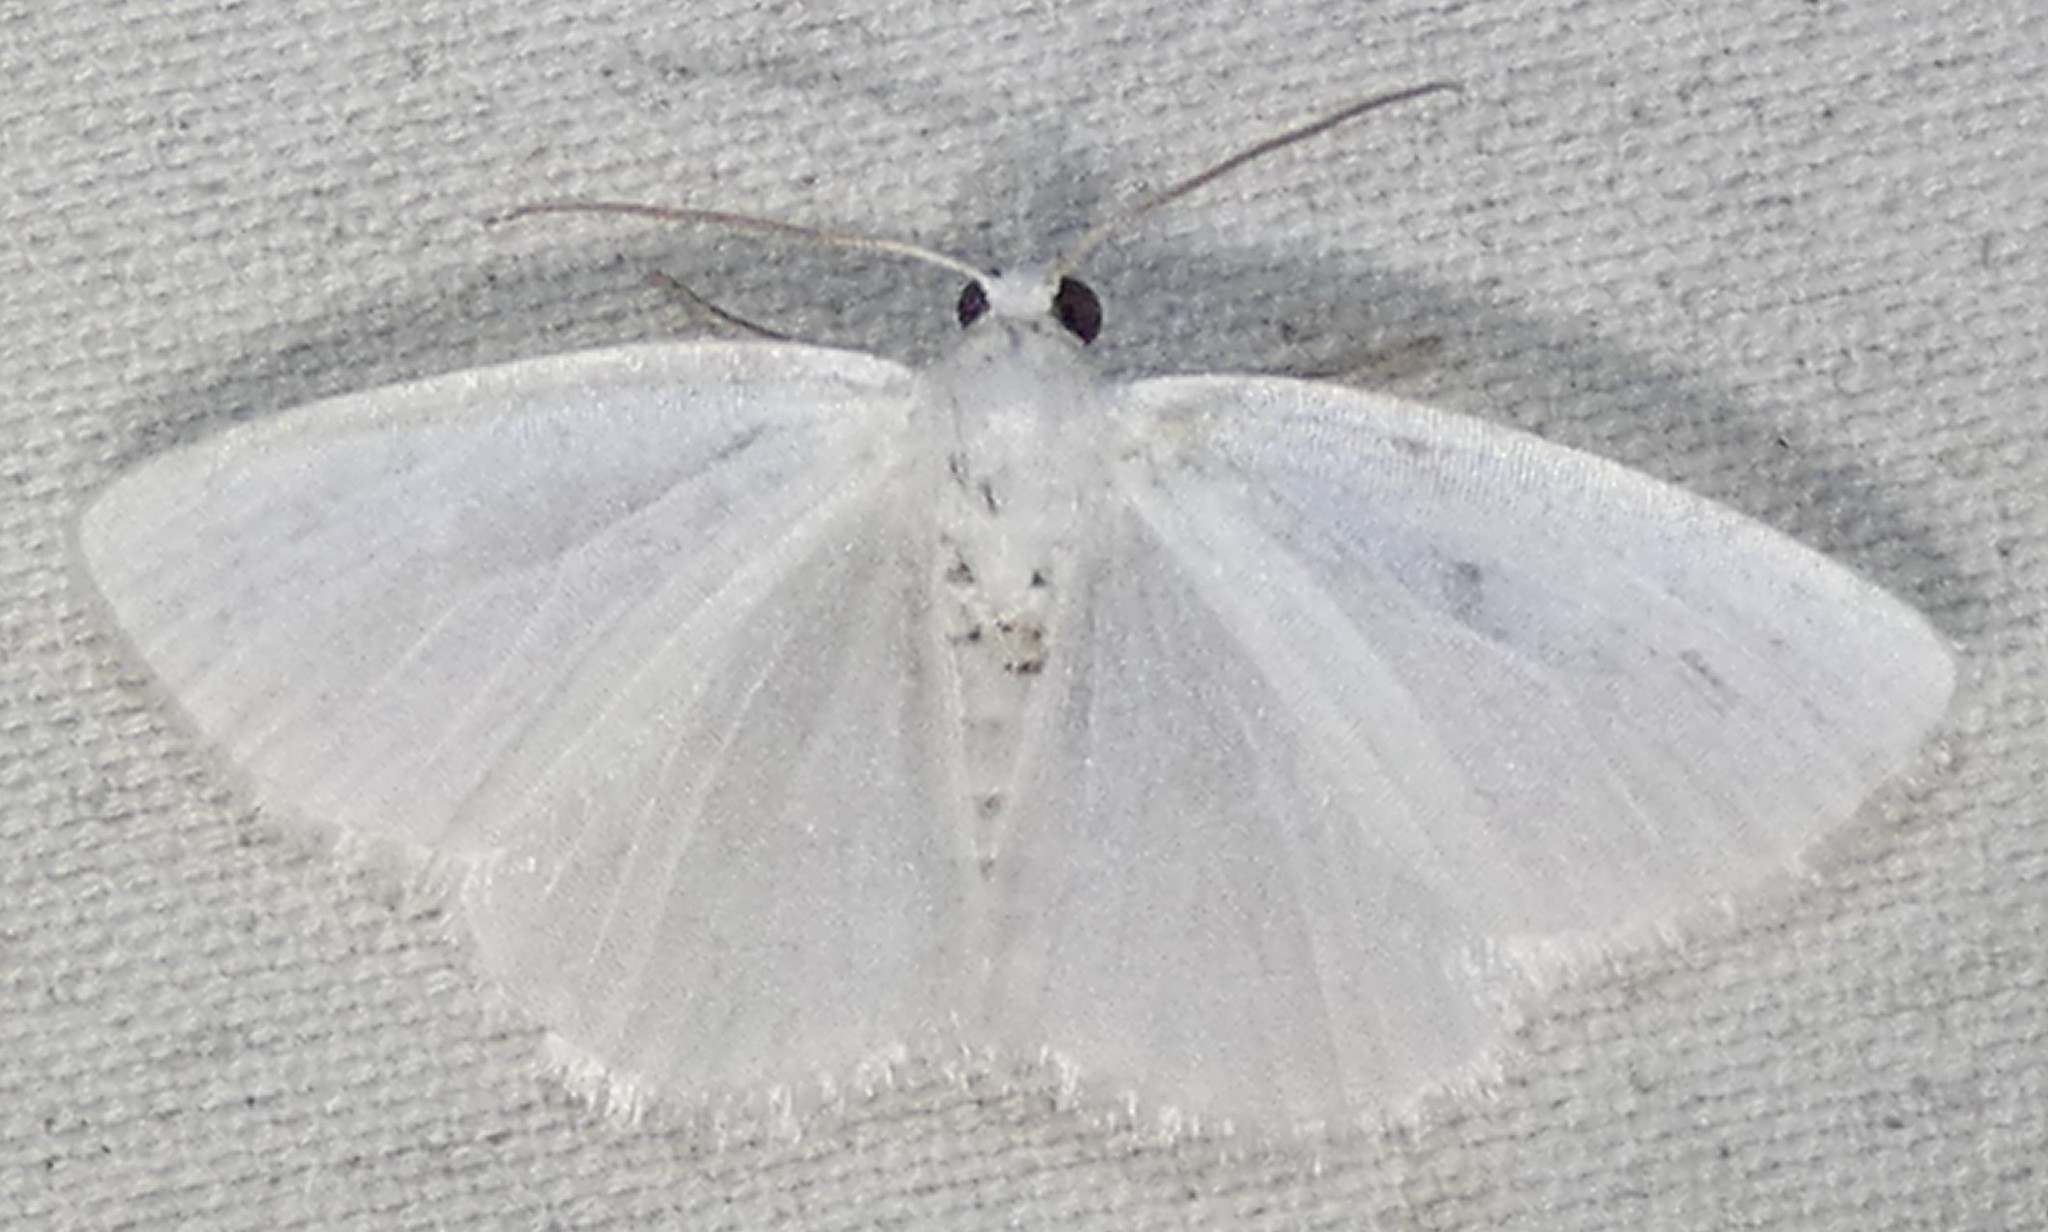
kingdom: Animalia
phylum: Arthropoda
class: Insecta
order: Lepidoptera
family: Geometridae
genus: Lomographa
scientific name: Lomographa vestaliata
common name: White spring moth
